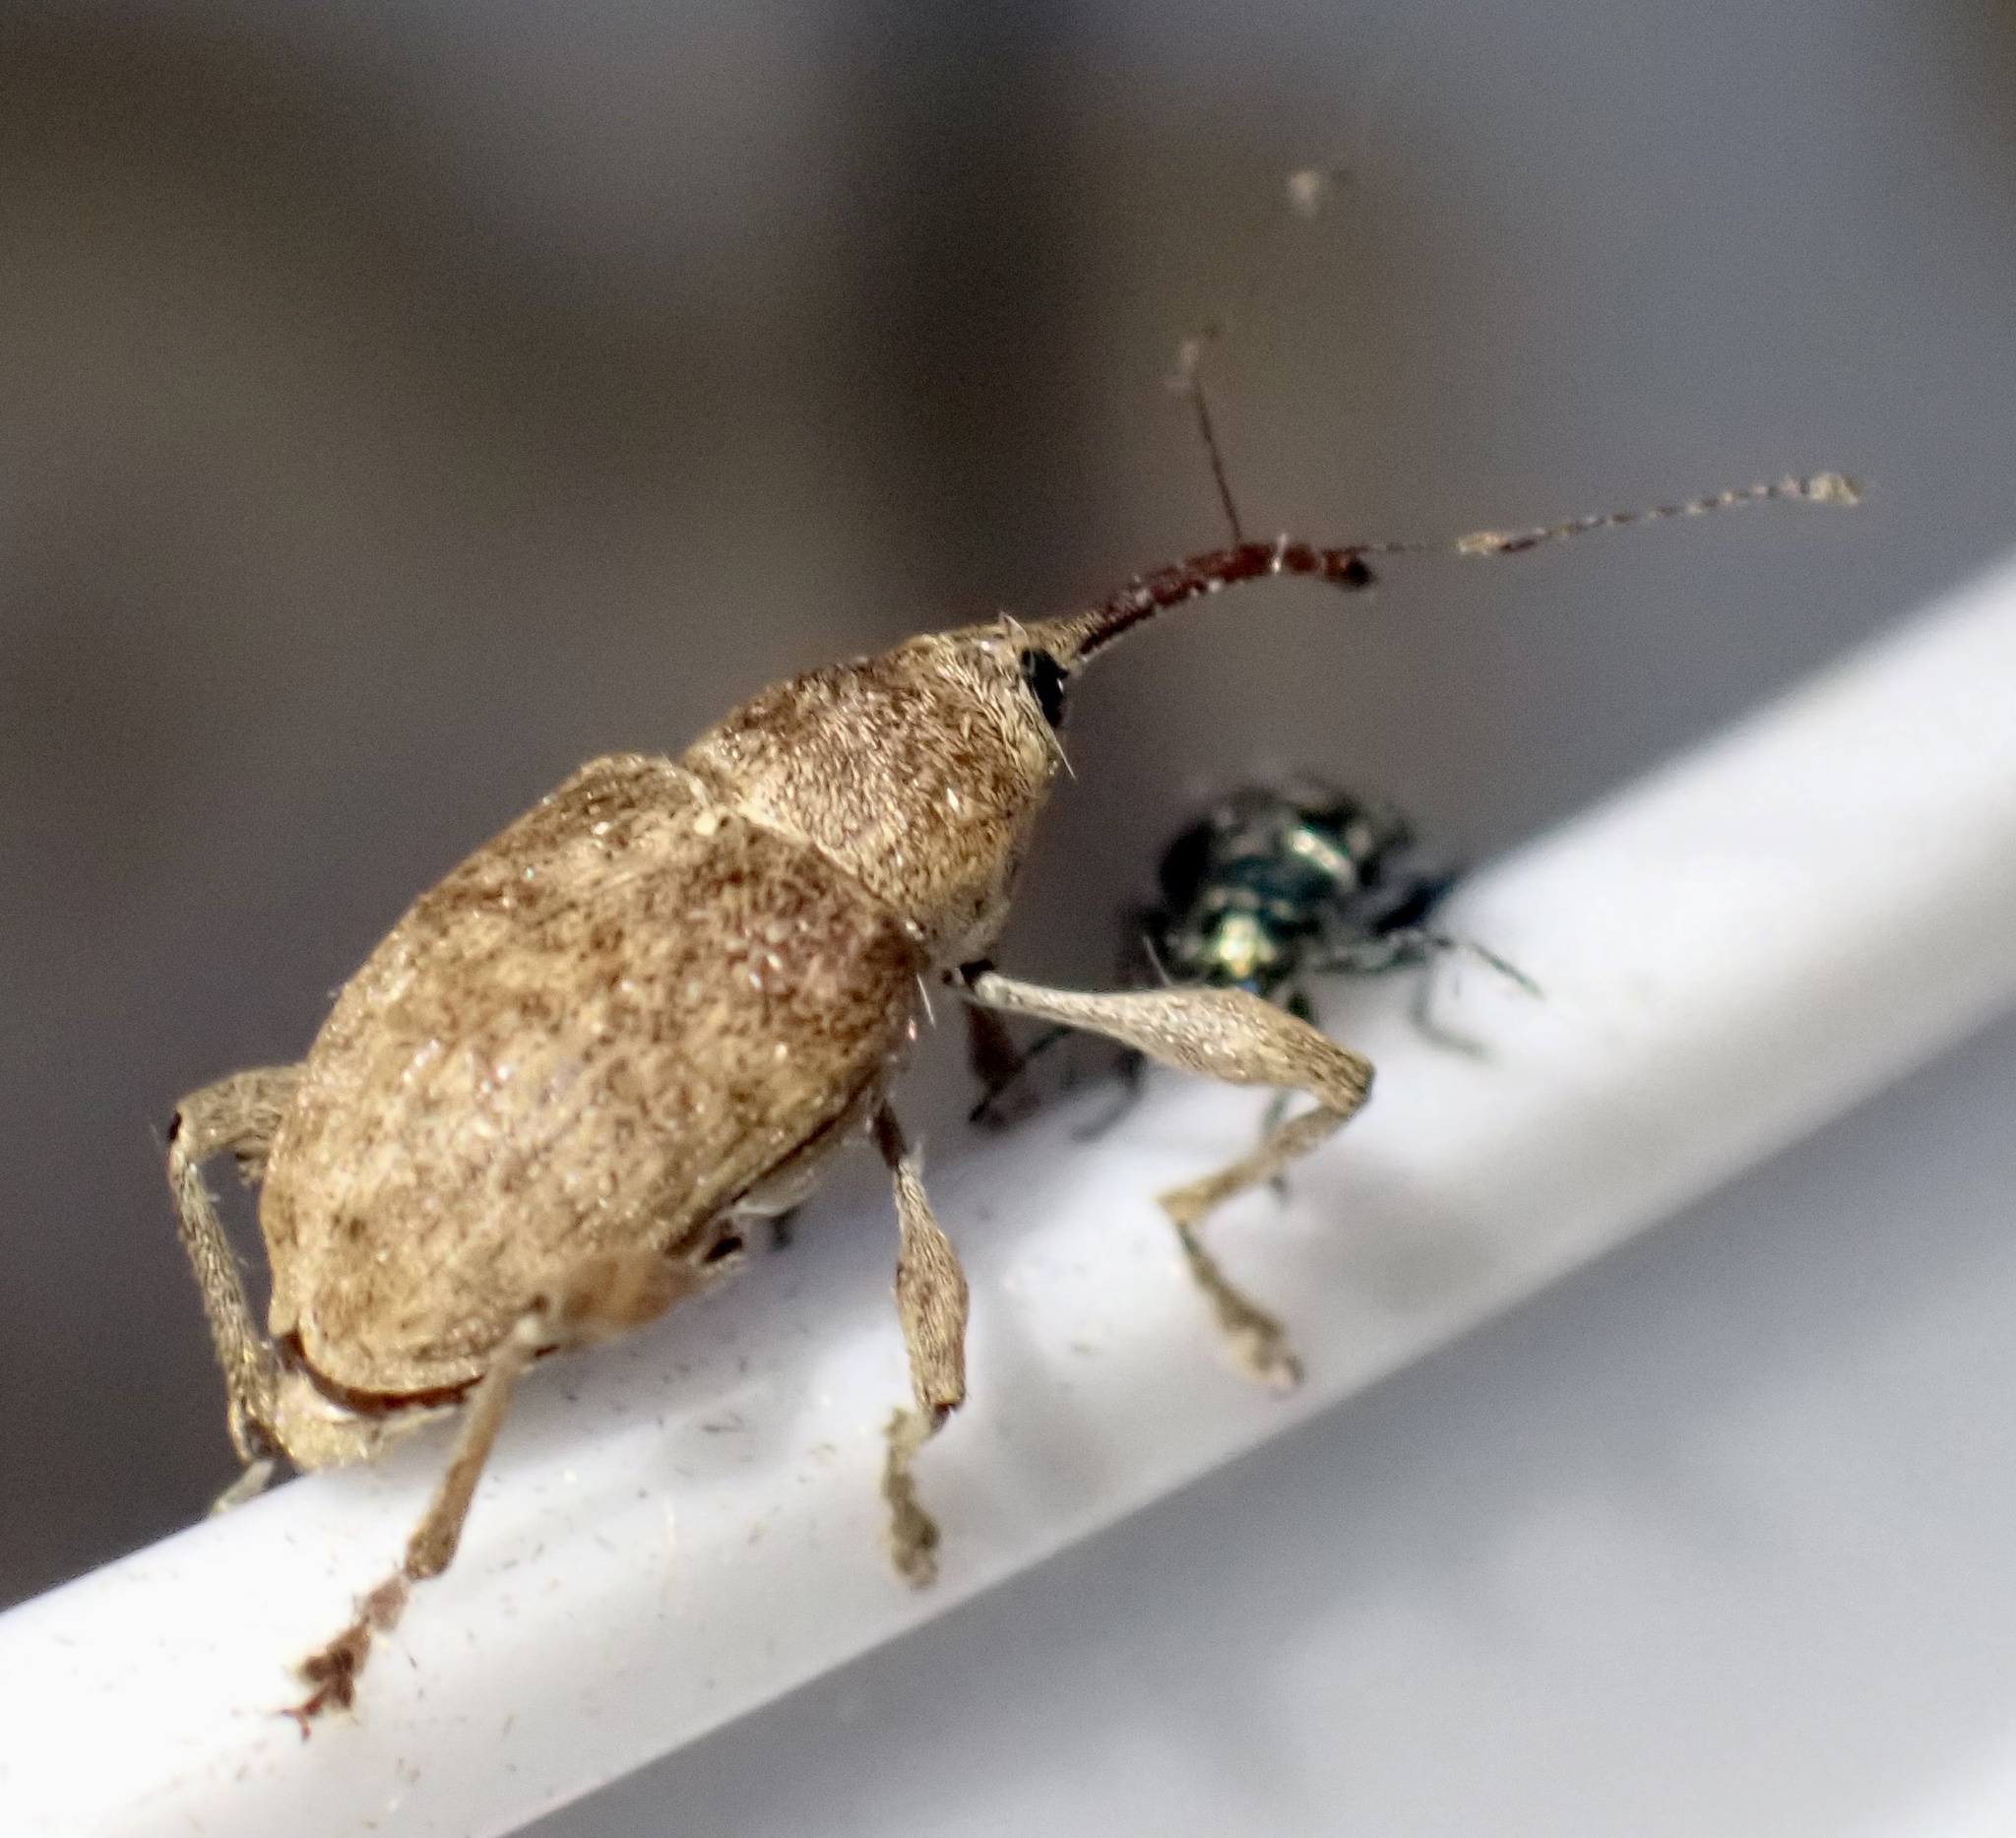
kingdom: Animalia
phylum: Arthropoda
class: Insecta
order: Coleoptera
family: Curculionidae
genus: Curculio
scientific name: Curculio elephas
